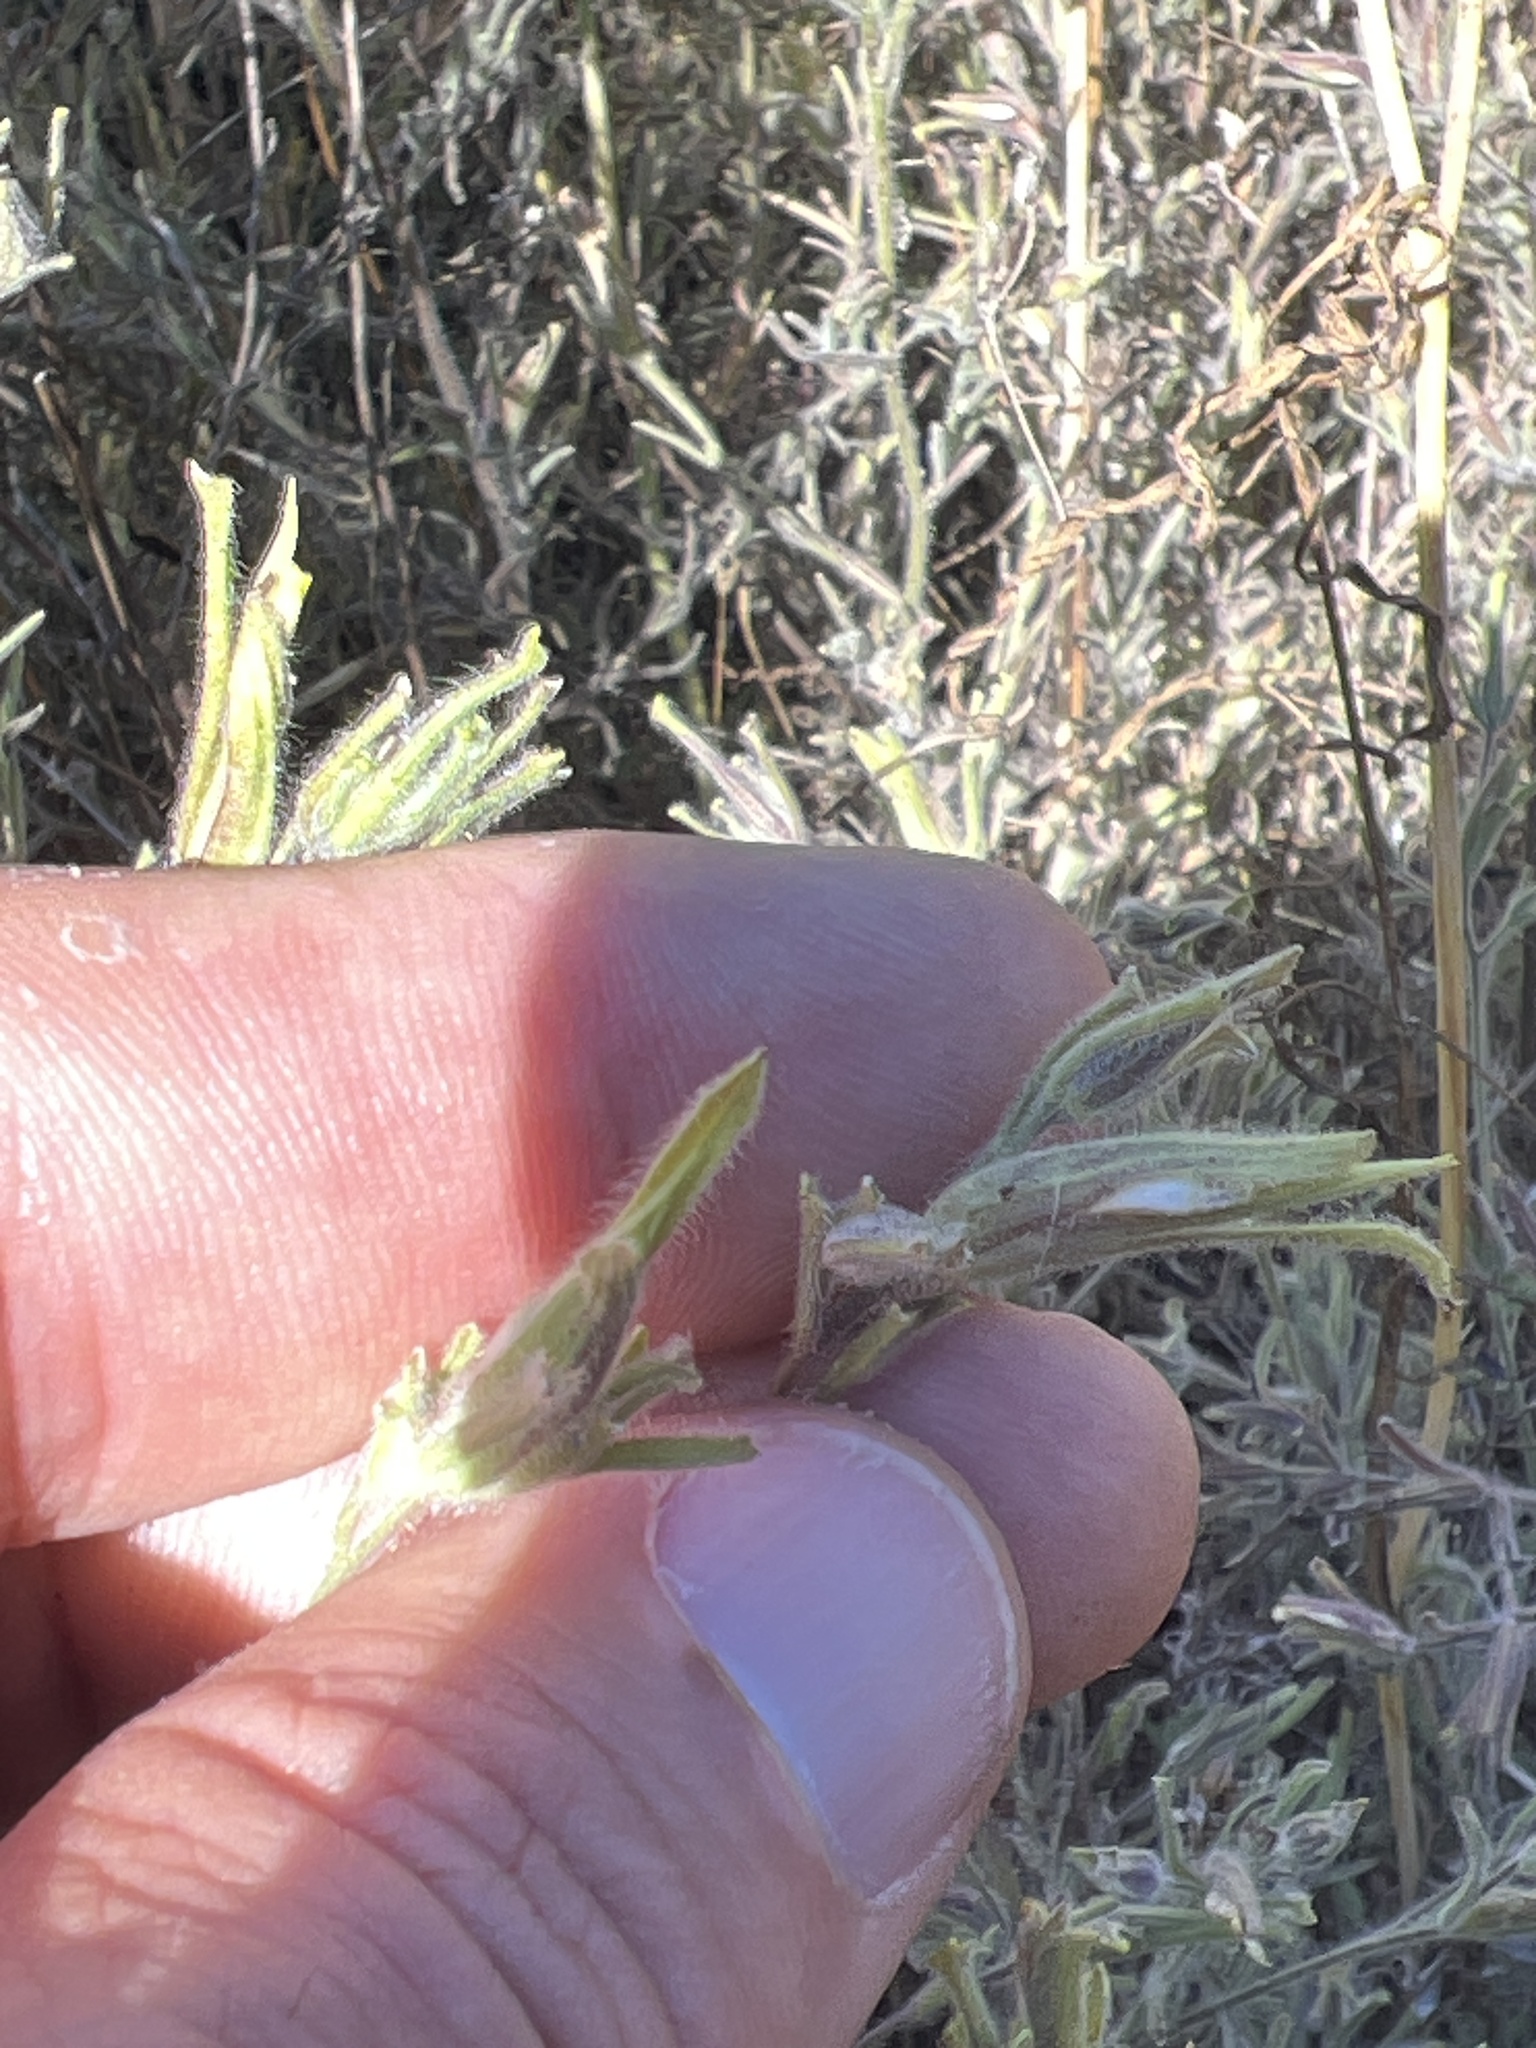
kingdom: Plantae
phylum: Tracheophyta
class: Magnoliopsida
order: Lamiales
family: Orobanchaceae
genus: Cordylanthus
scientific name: Cordylanthus pilosus
